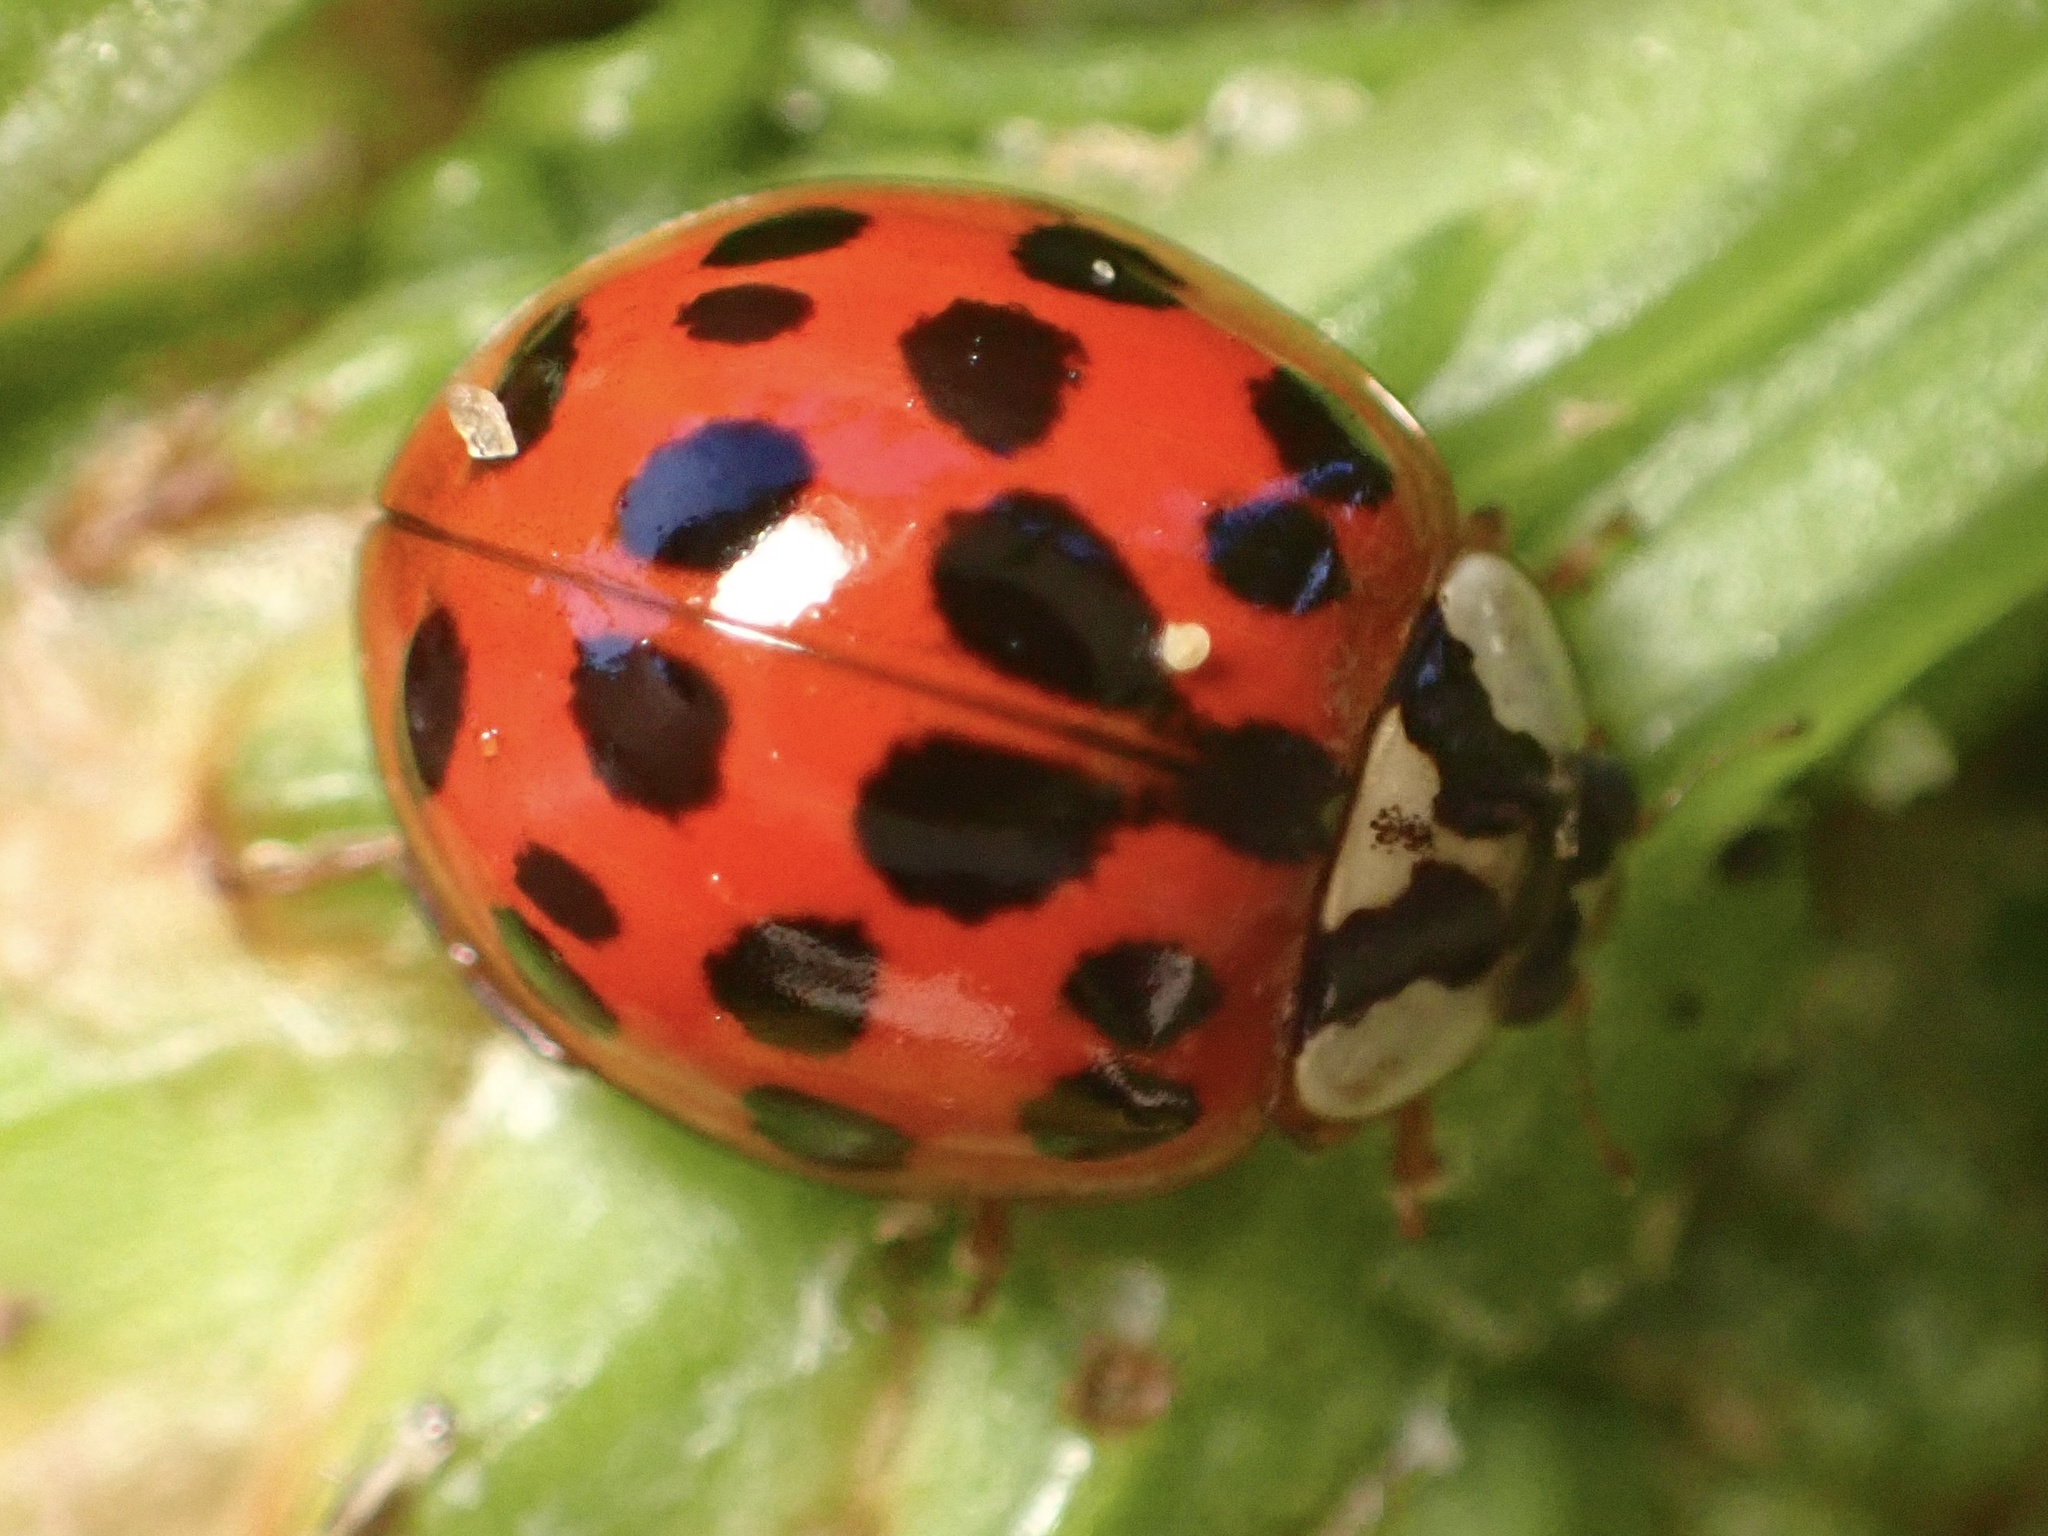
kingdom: Animalia
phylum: Arthropoda
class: Insecta
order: Coleoptera
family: Coccinellidae
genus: Harmonia
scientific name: Harmonia axyridis
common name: Harlequin ladybird
